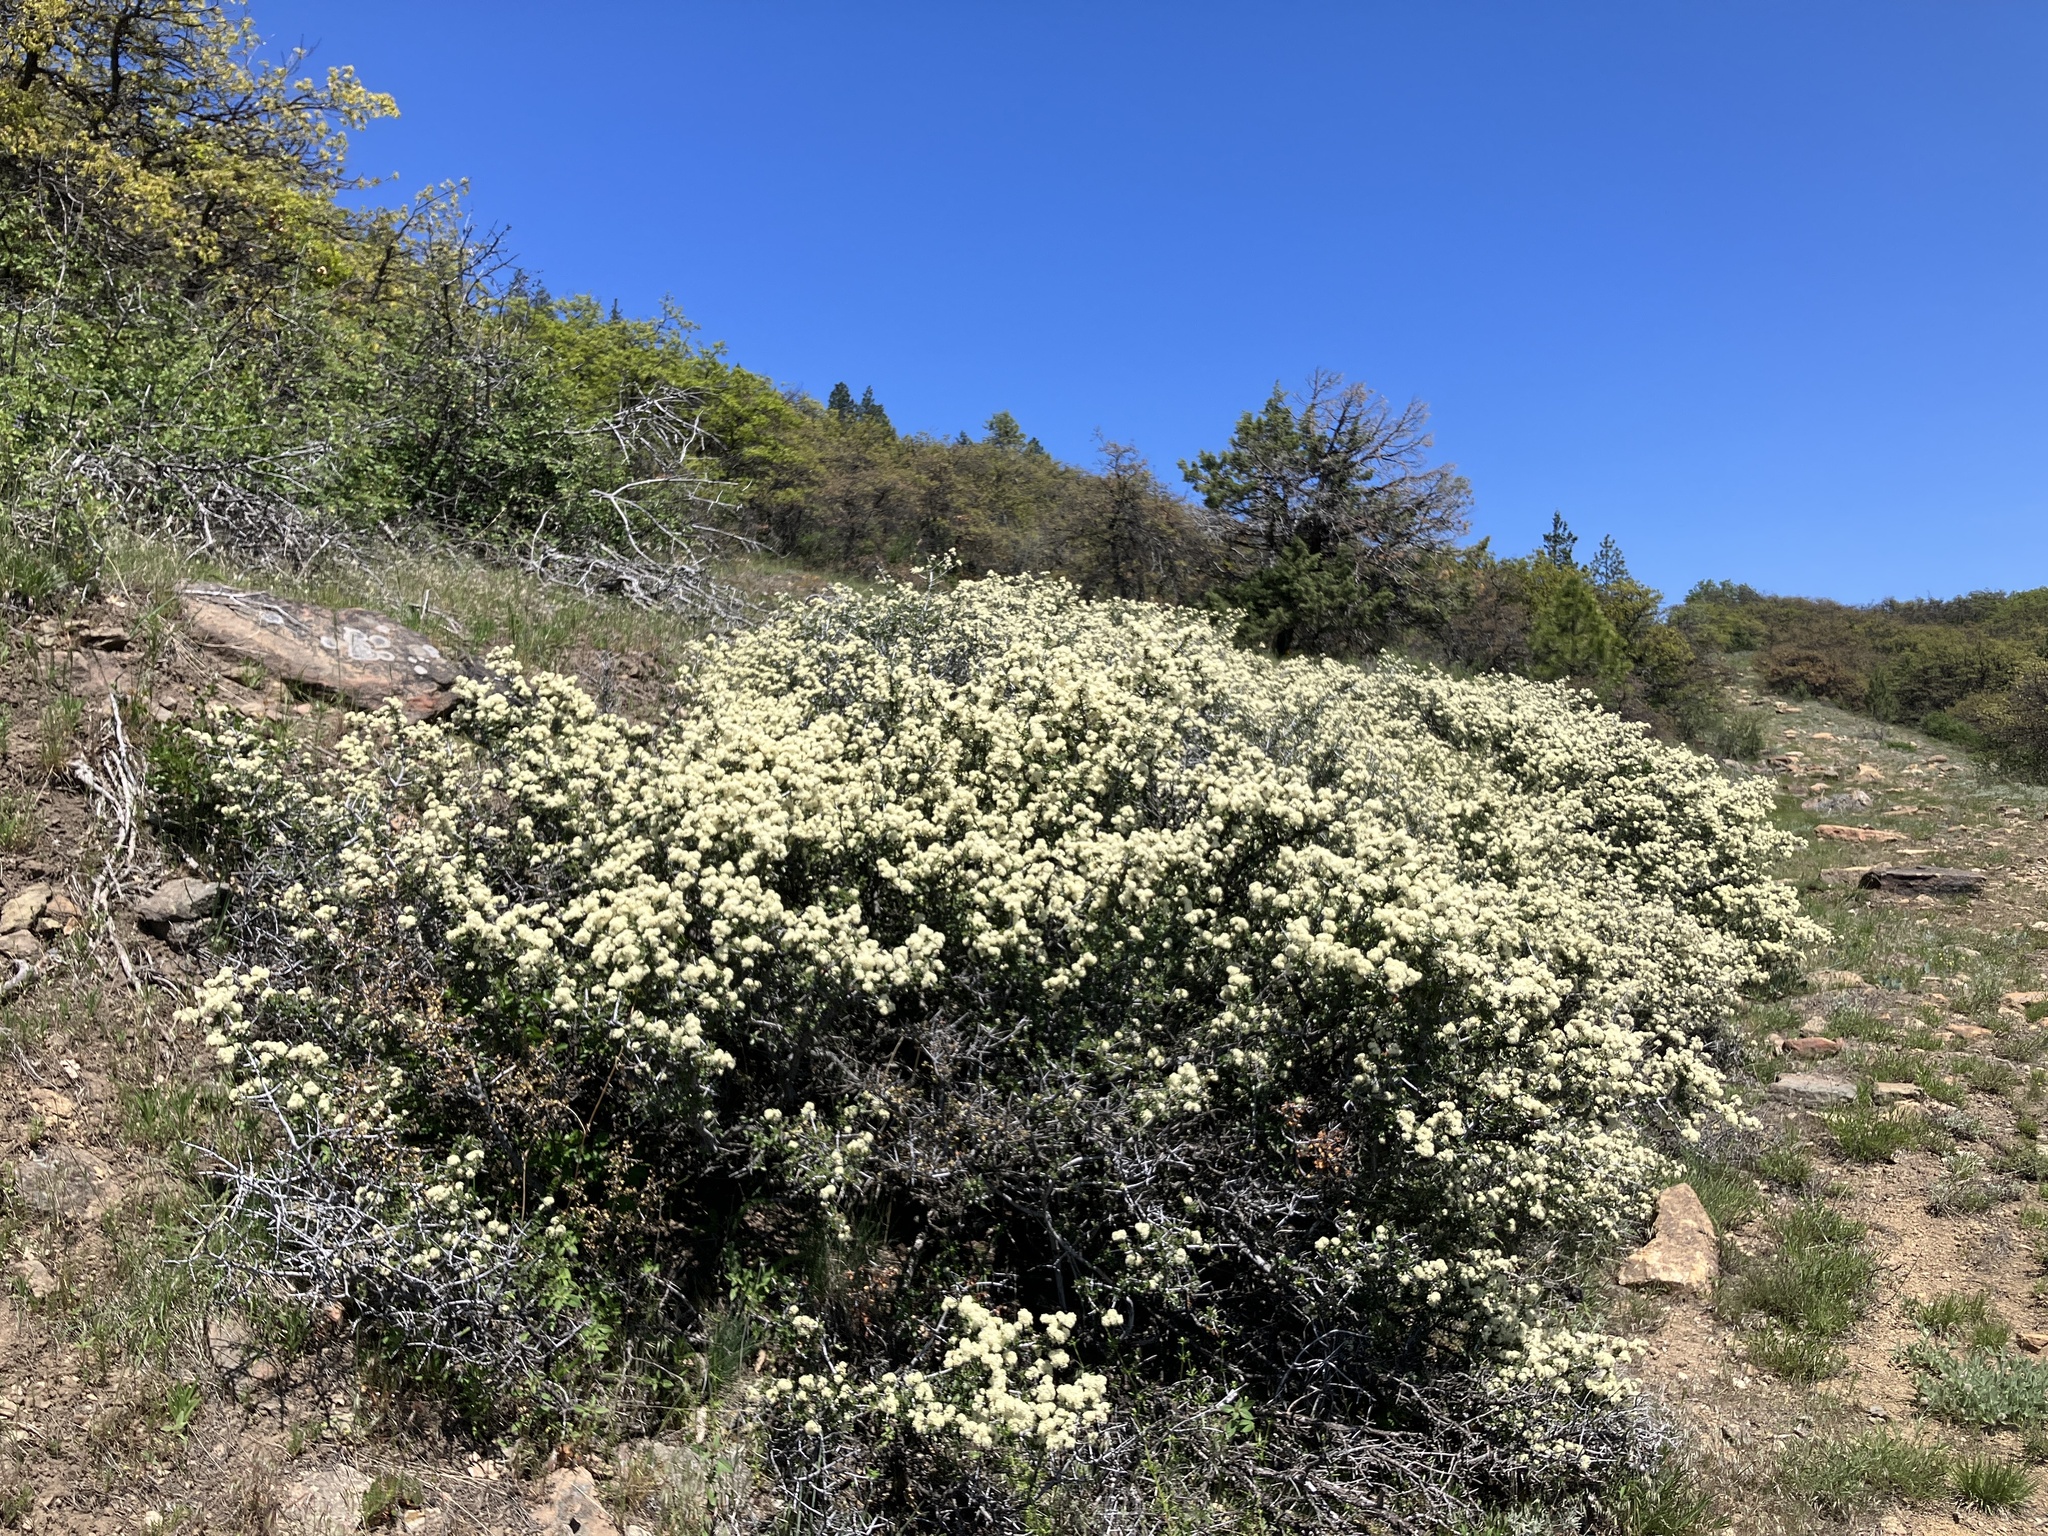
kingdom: Plantae
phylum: Tracheophyta
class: Magnoliopsida
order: Rosales
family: Rhamnaceae
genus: Ceanothus
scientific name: Ceanothus cuneatus
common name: Cuneate ceanothus
